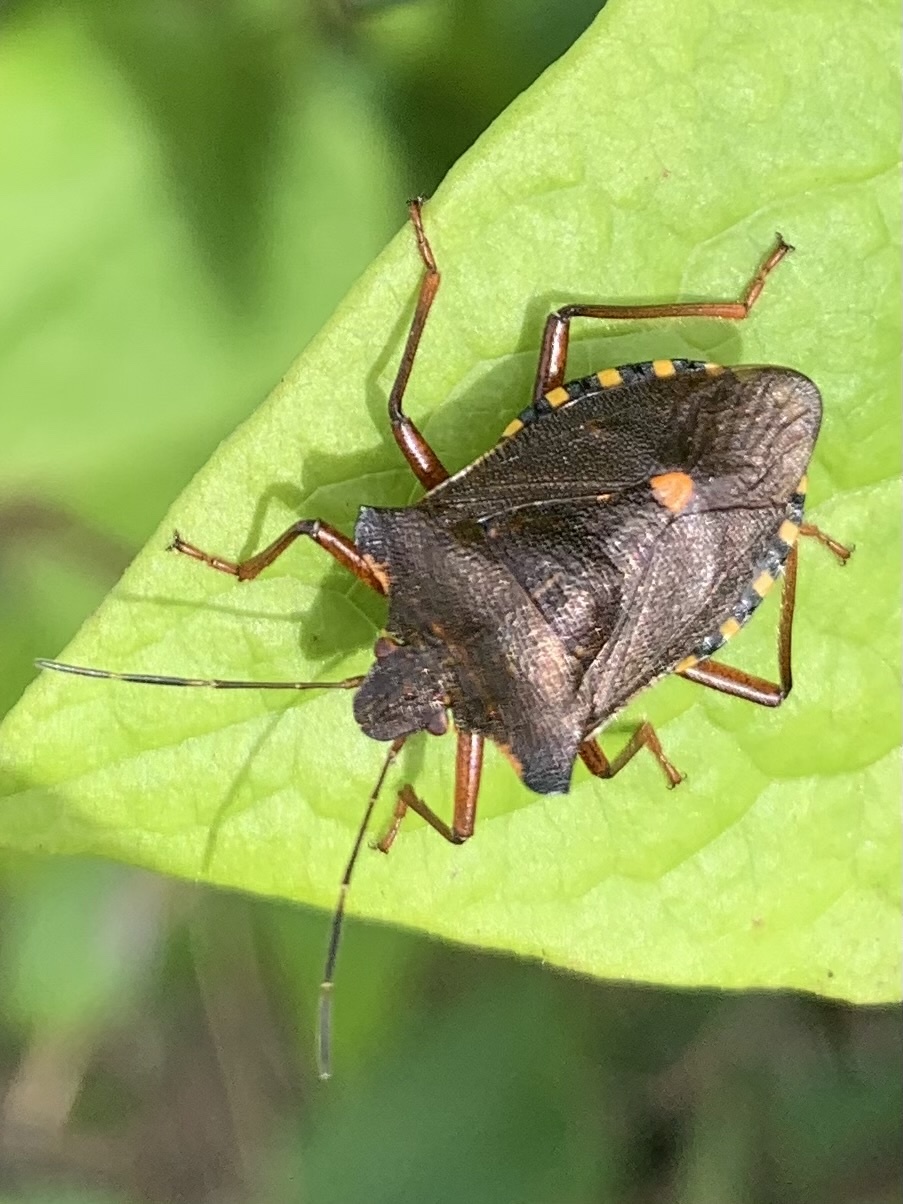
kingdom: Animalia
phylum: Arthropoda
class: Insecta
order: Hemiptera
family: Pentatomidae
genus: Pentatoma
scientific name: Pentatoma rufipes
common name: Forest bug
